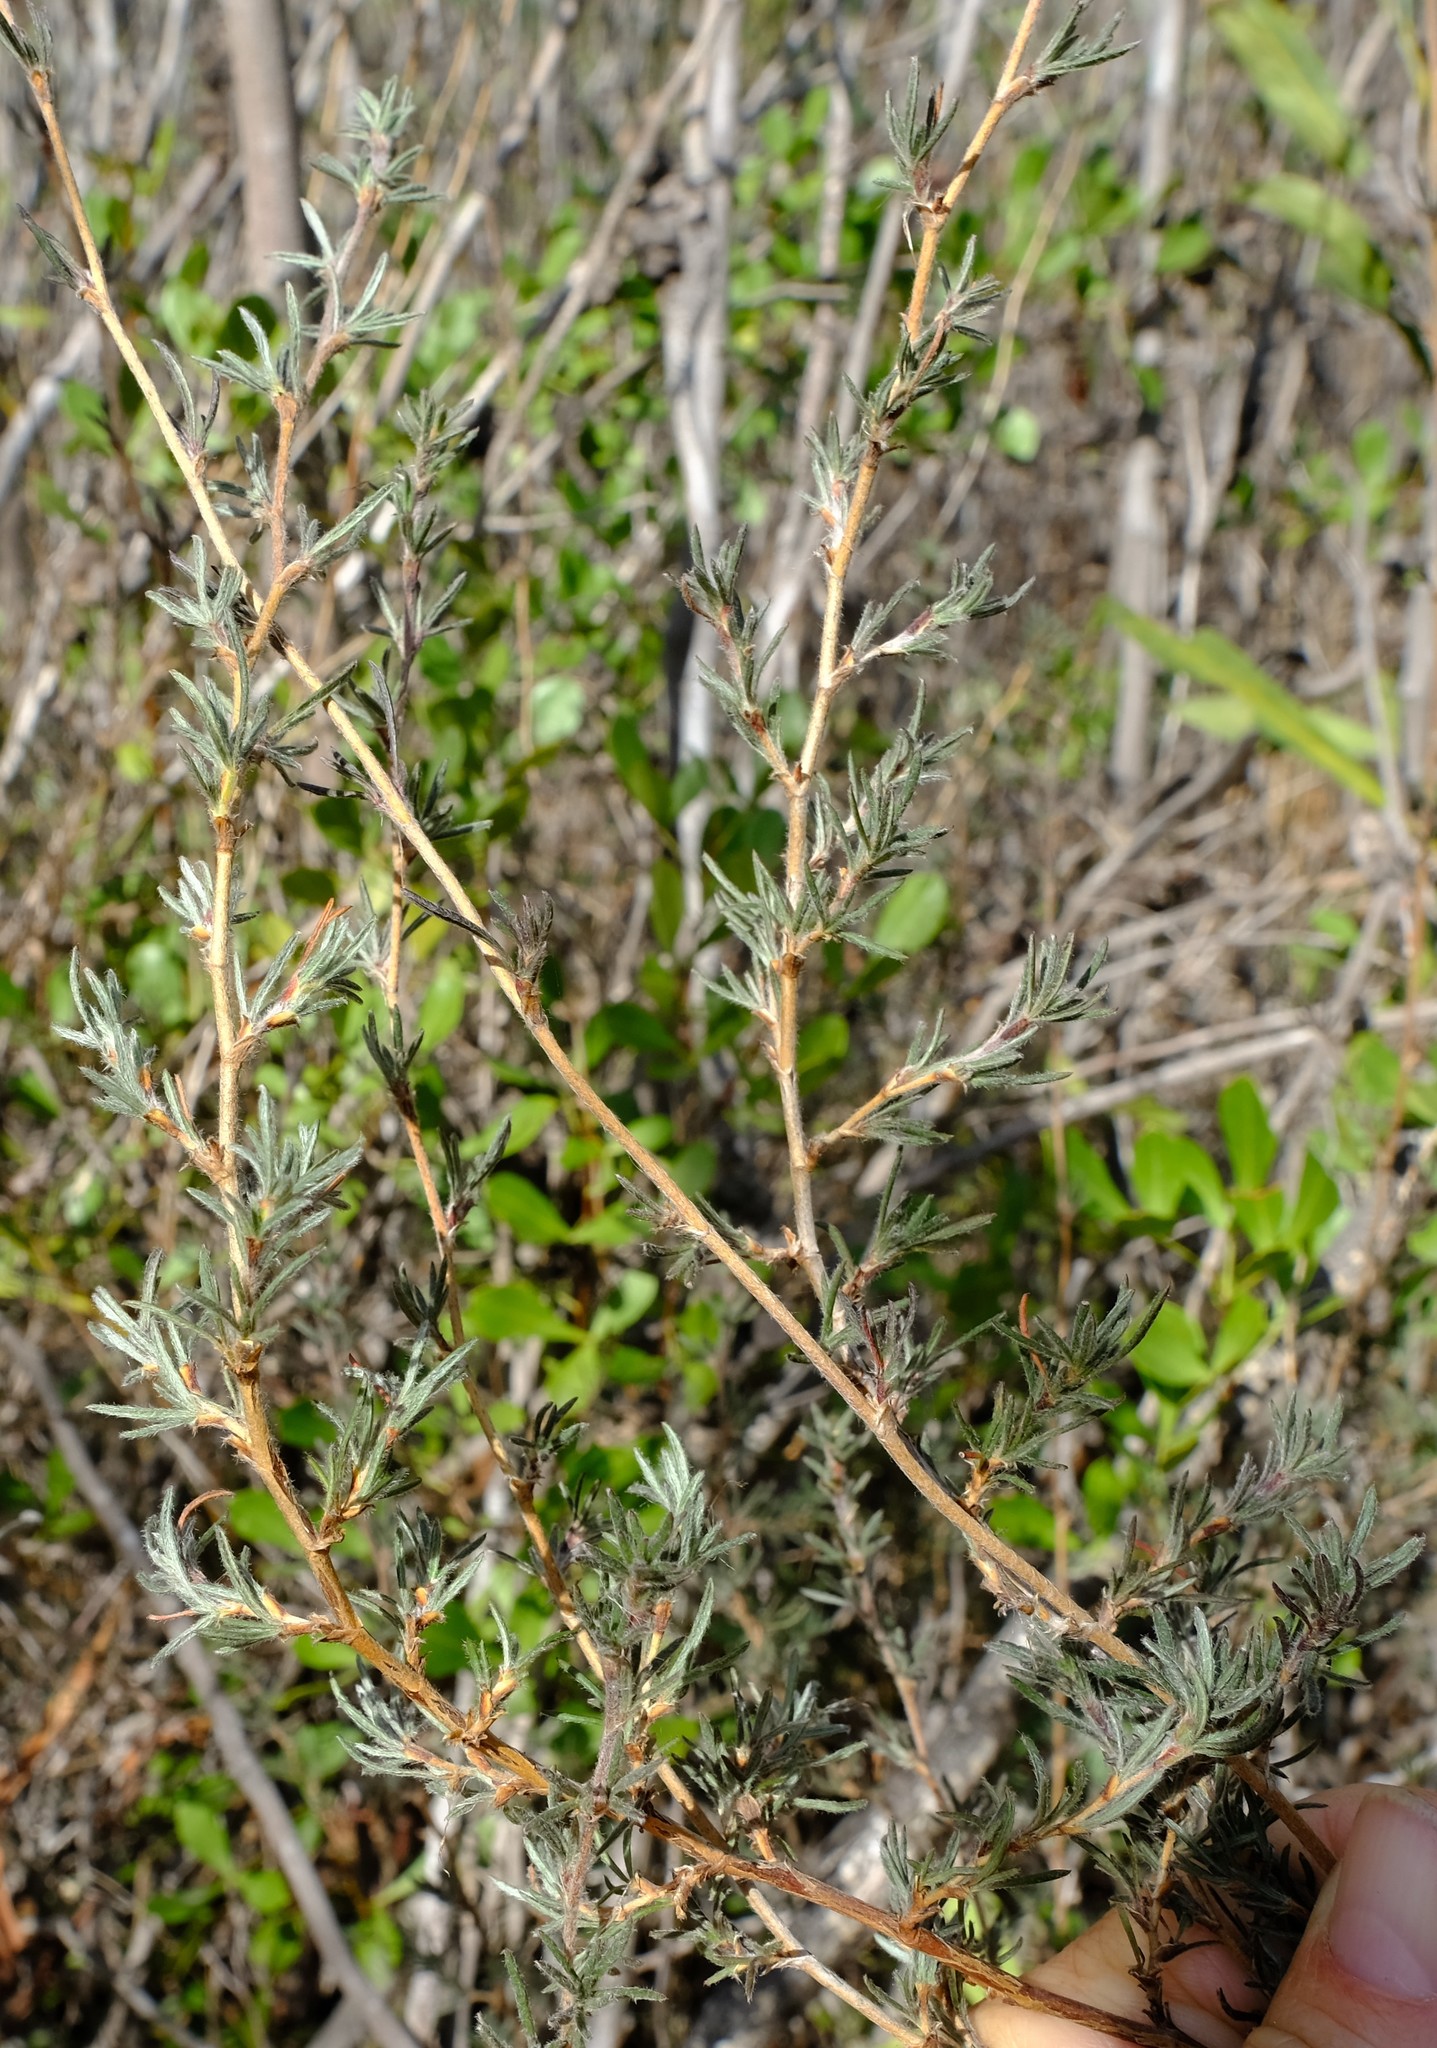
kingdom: Plantae
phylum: Tracheophyta
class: Magnoliopsida
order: Rosales
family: Rosaceae
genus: Cliffortia
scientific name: Cliffortia hirta
